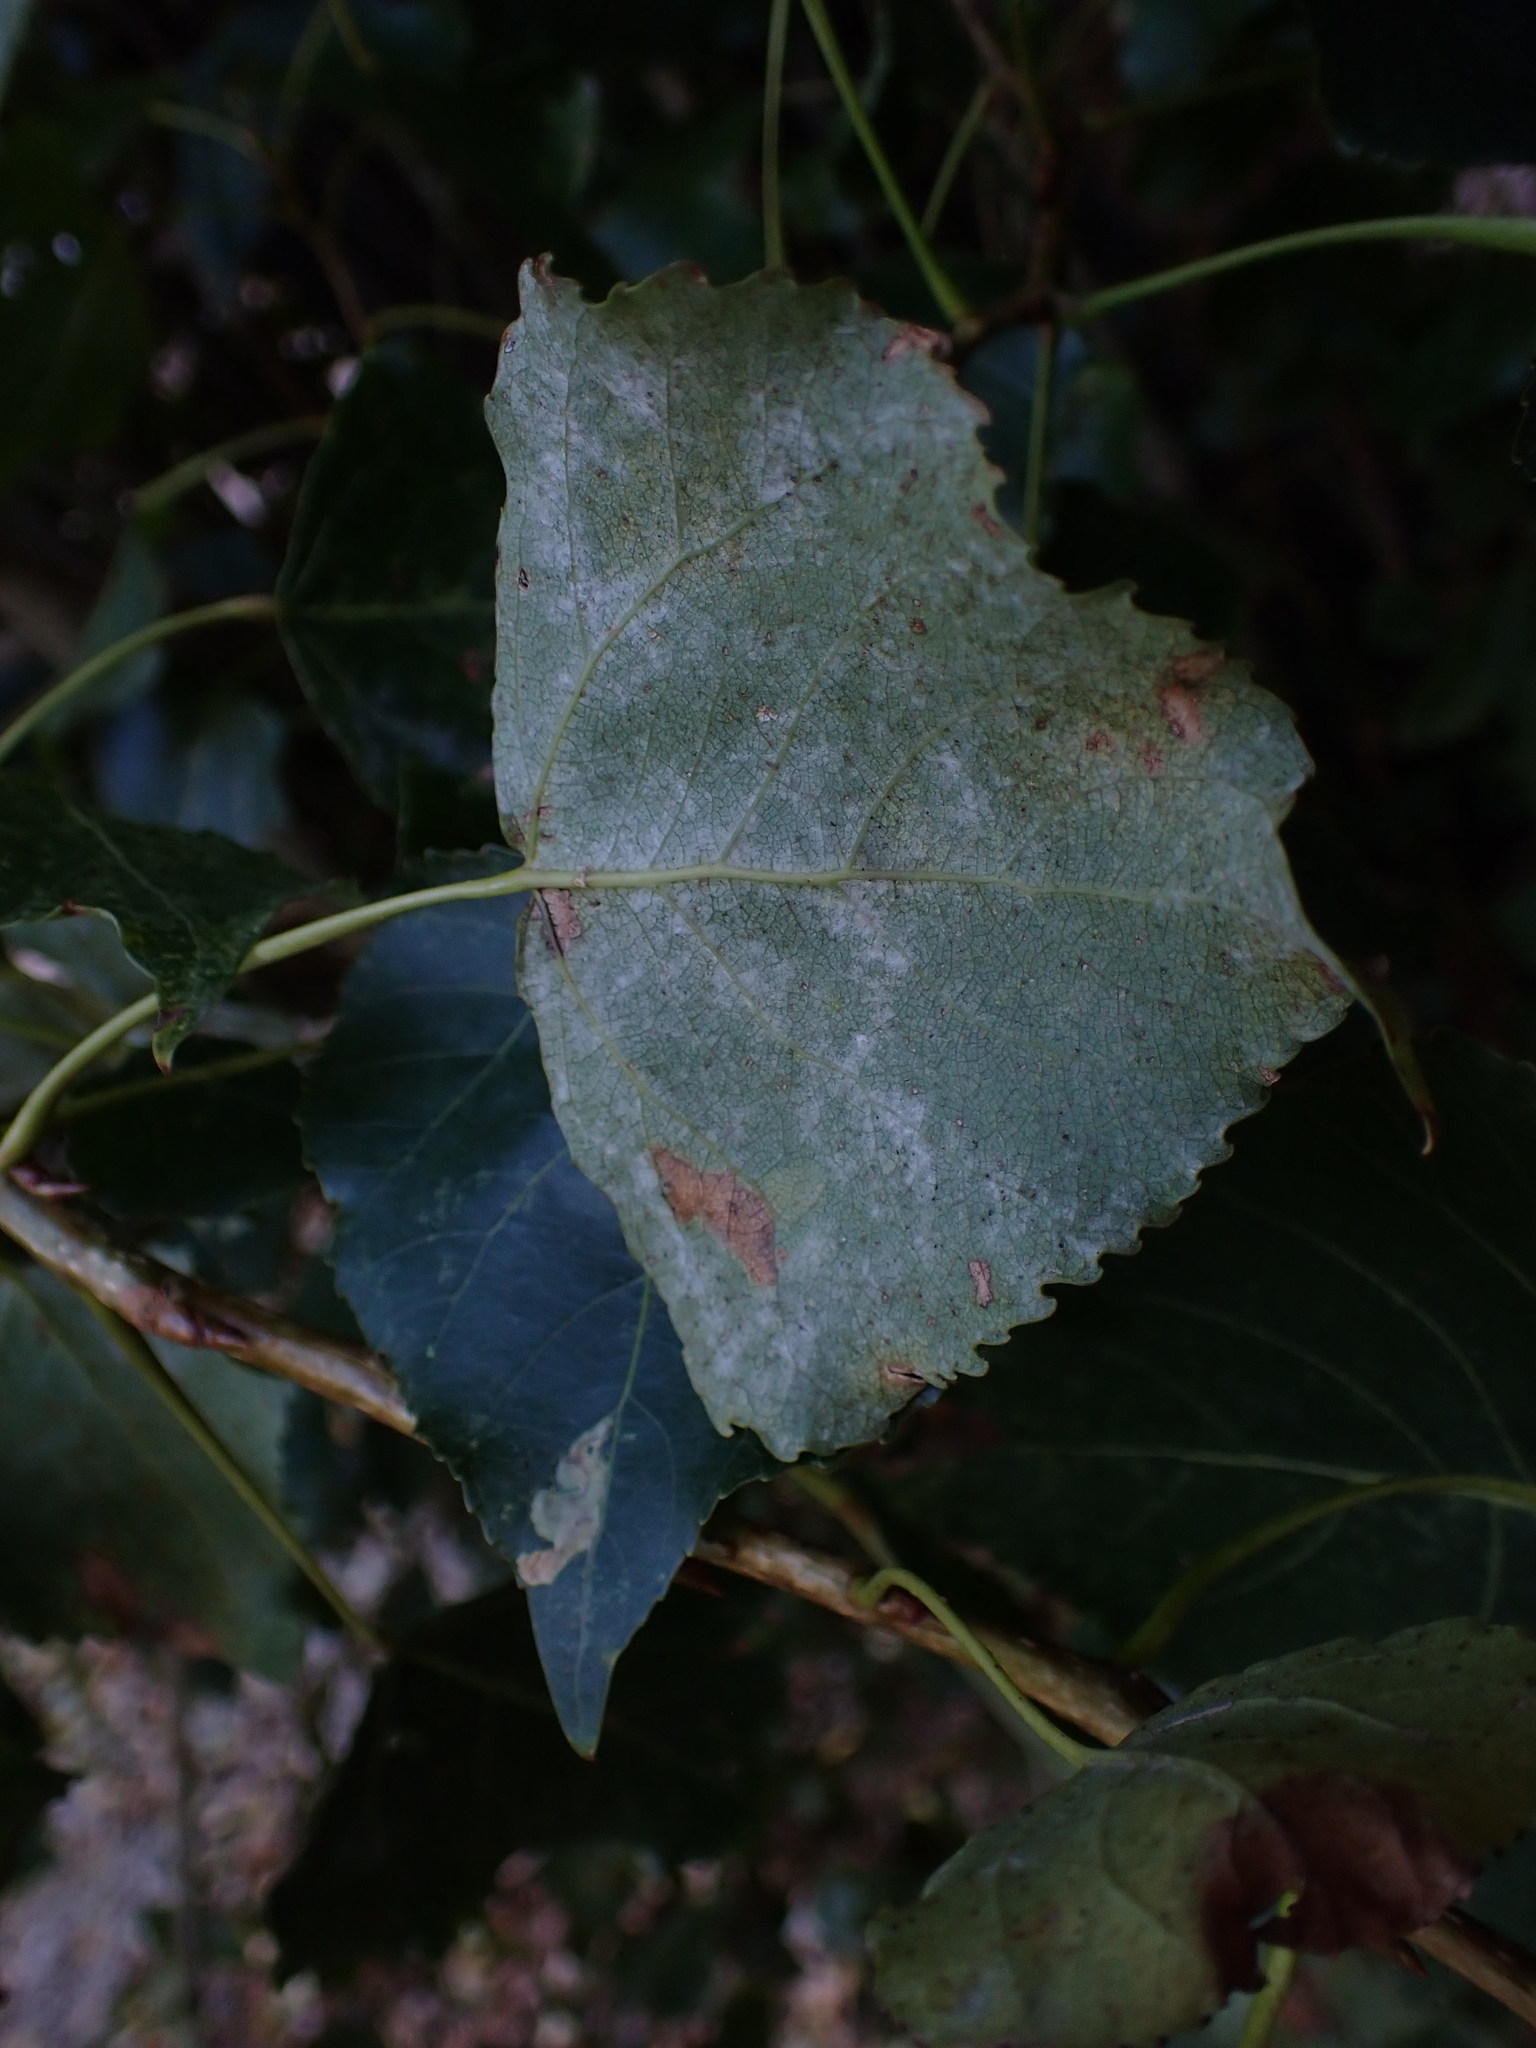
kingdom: Fungi
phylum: Ascomycota
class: Leotiomycetes
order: Helotiales
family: Erysiphaceae
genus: Erysiphe
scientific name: Erysiphe adunca
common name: Willow mildew
